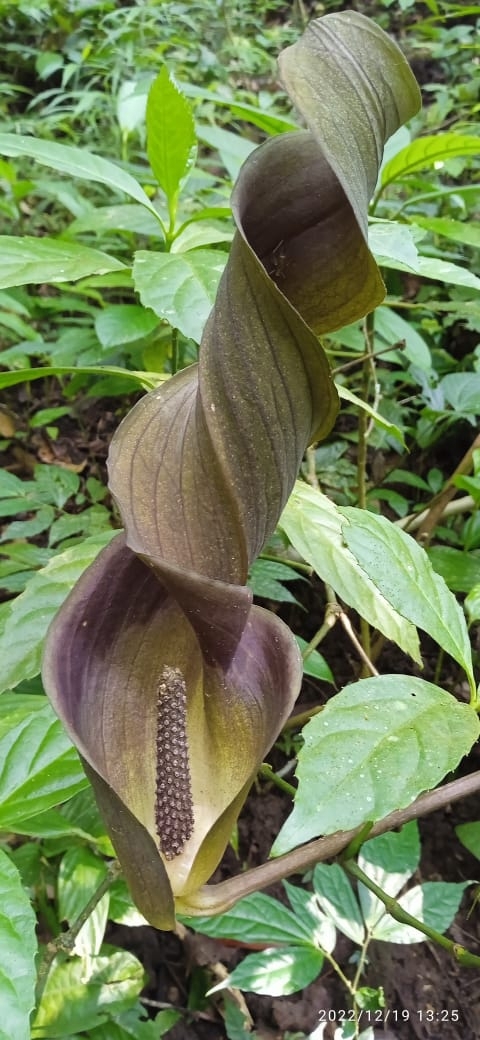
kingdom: Plantae
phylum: Tracheophyta
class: Liliopsida
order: Alismatales
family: Araceae
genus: Anaphyllum
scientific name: Anaphyllum wightii
